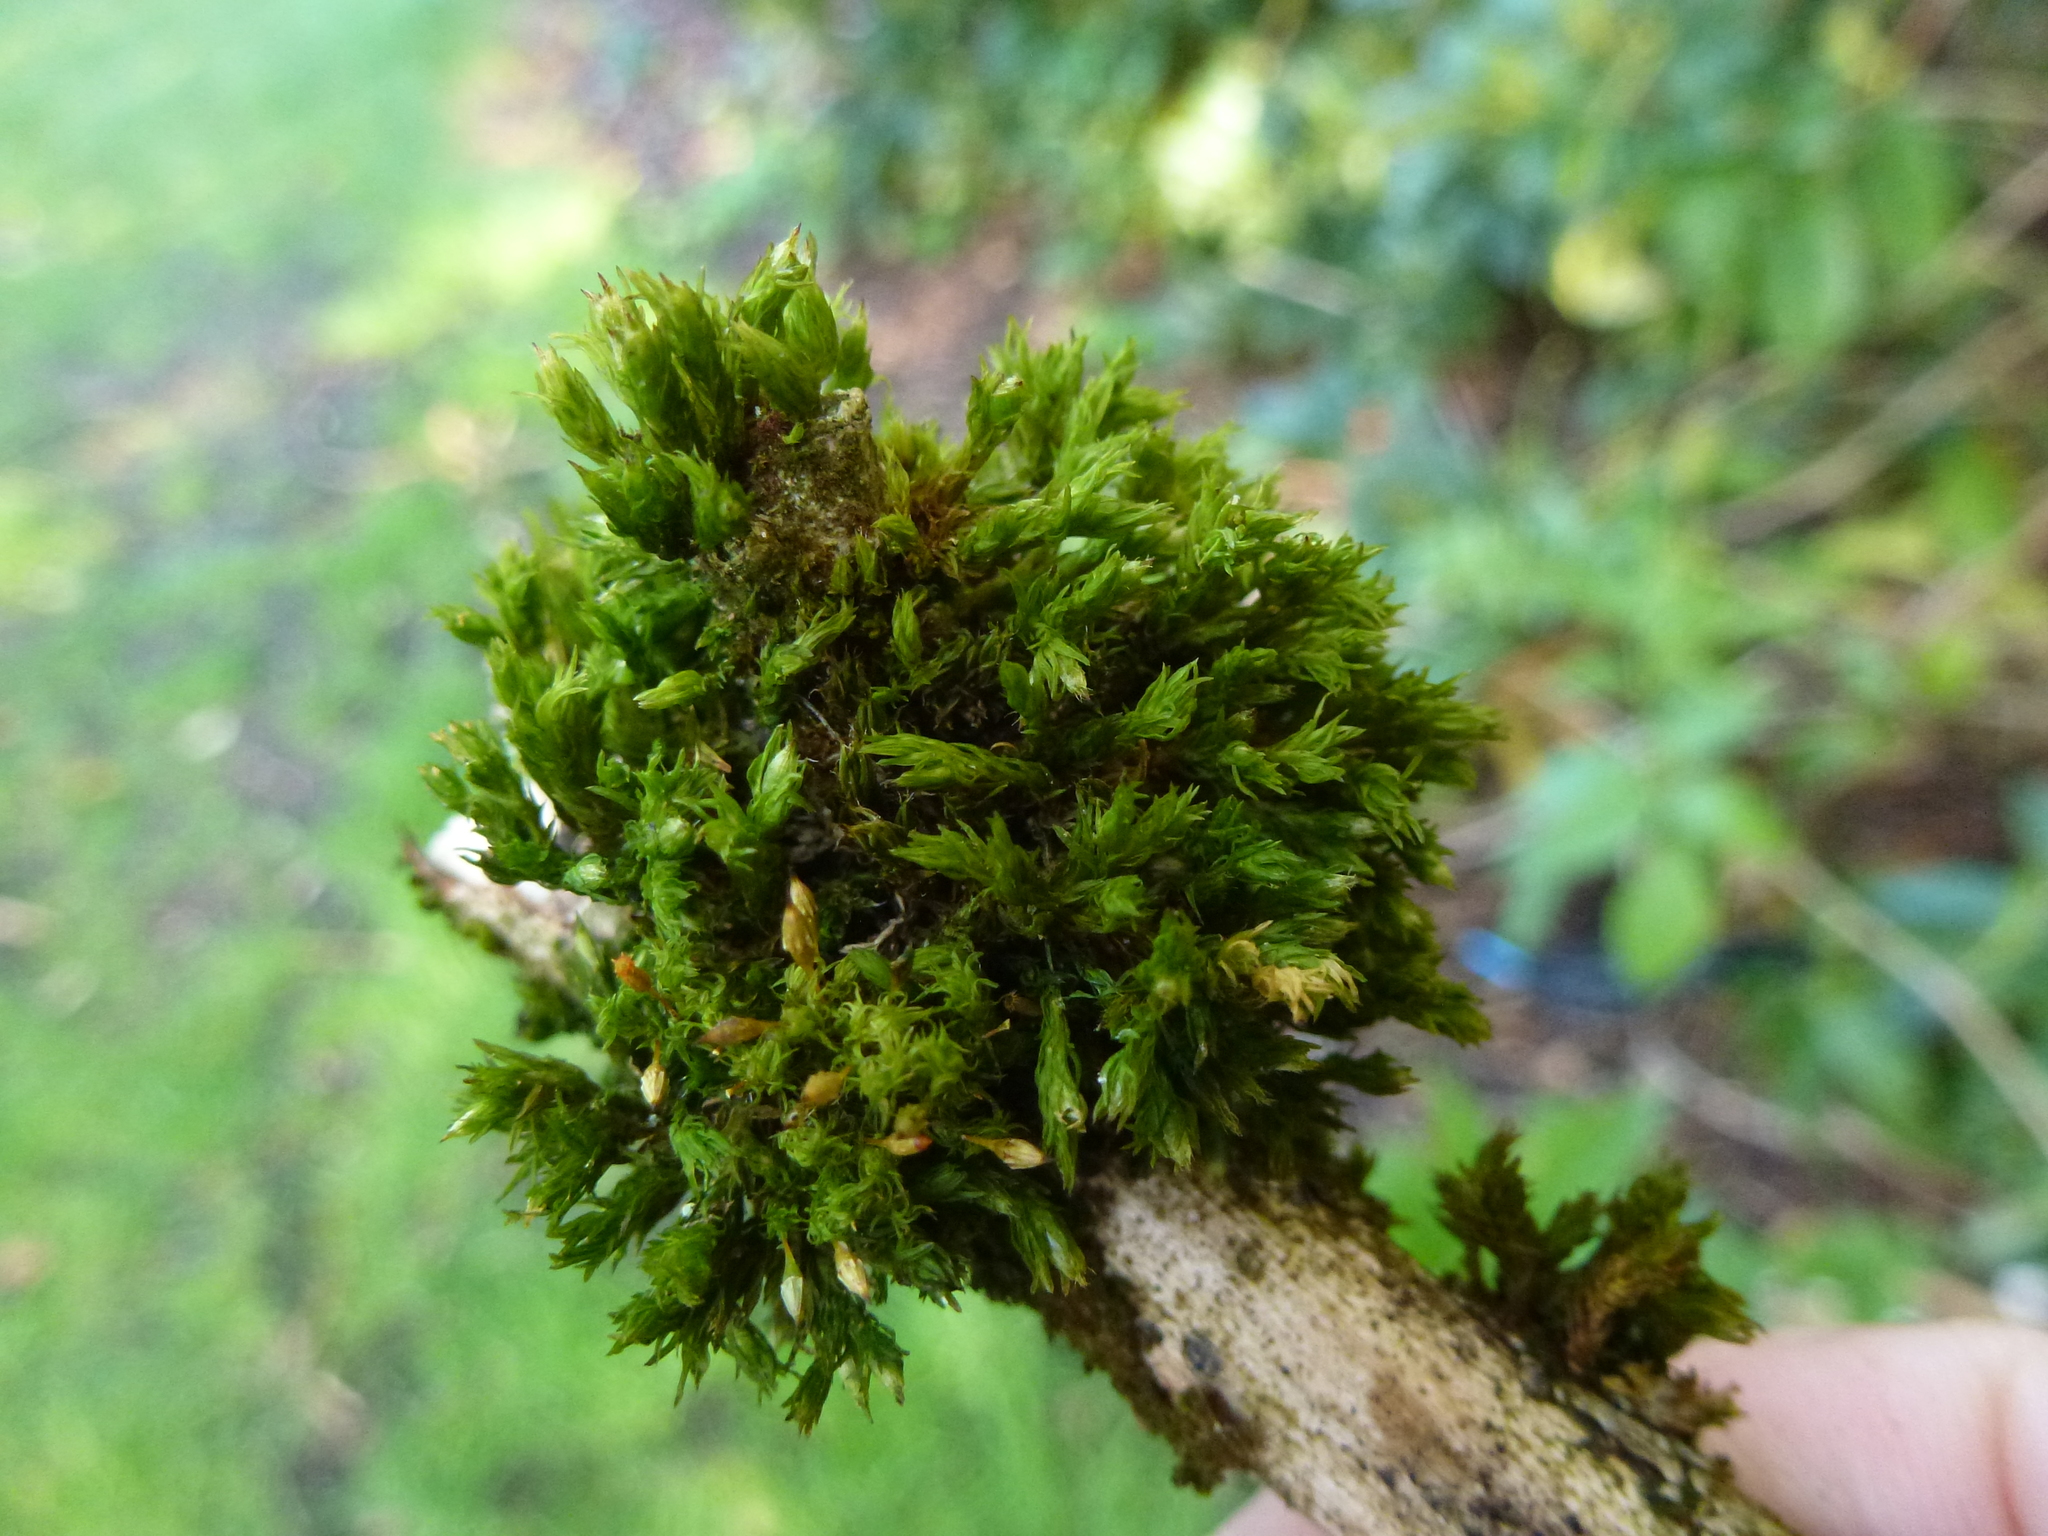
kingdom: Plantae
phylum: Bryophyta
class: Bryopsida
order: Orthotrichales
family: Orthotrichaceae
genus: Orthotrichum
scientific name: Orthotrichum pulchellum
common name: Elegant bristle-moss
